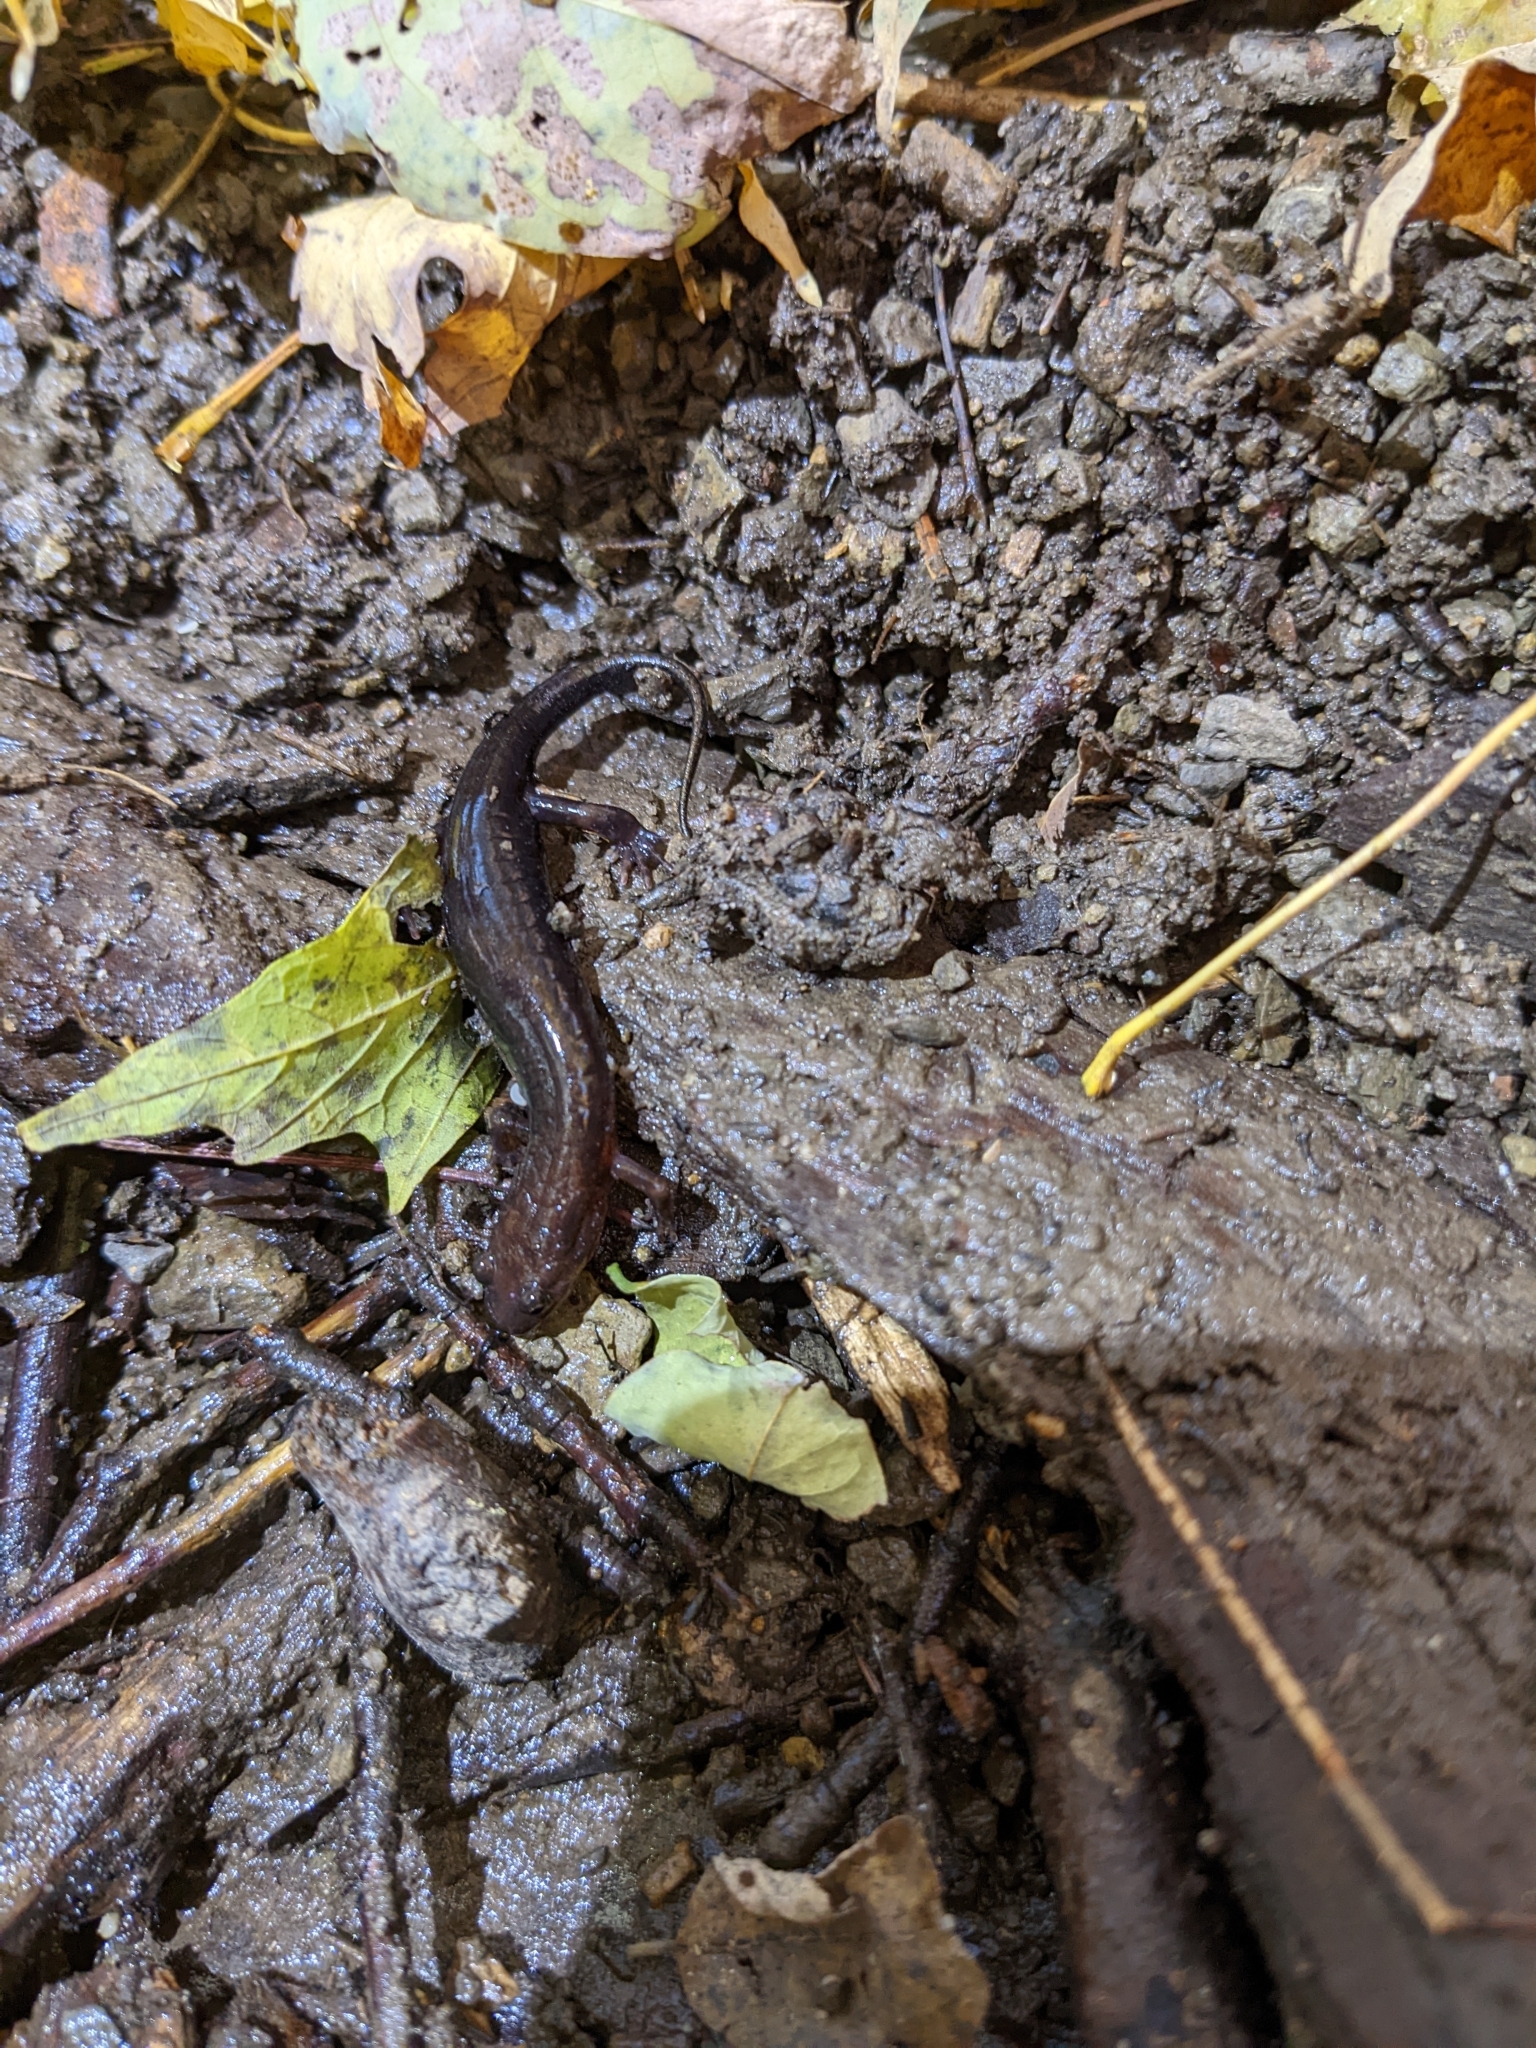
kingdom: Animalia
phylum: Chordata
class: Amphibia
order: Caudata
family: Plethodontidae
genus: Desmognathus
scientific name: Desmognathus ochrophaeus
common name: Allegheny mountain dusky salamander
